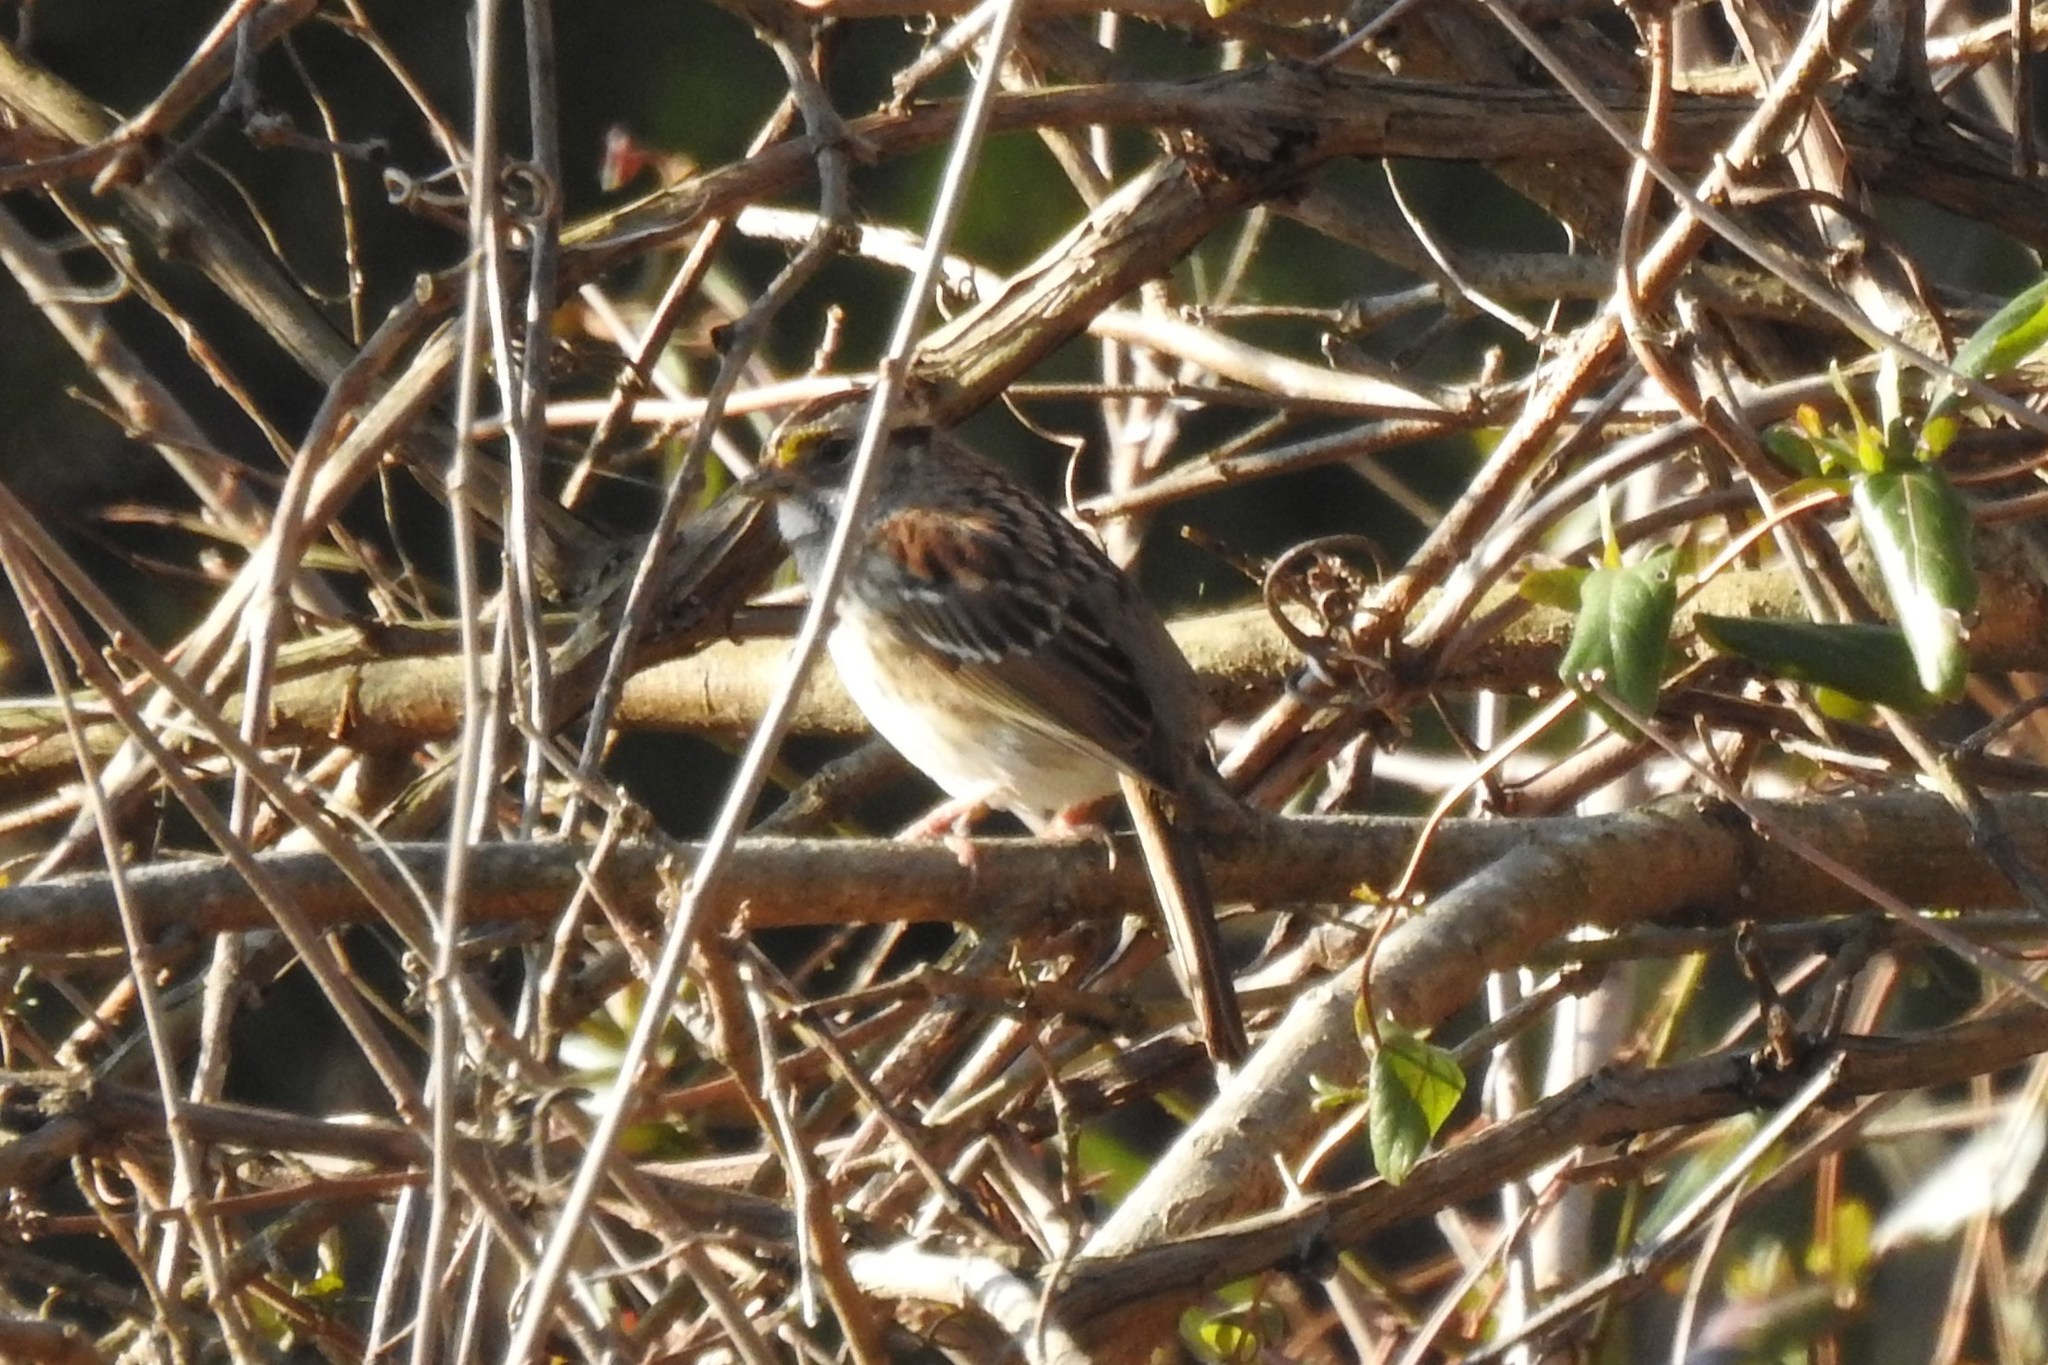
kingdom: Animalia
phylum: Chordata
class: Aves
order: Passeriformes
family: Passerellidae
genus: Zonotrichia
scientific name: Zonotrichia albicollis
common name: White-throated sparrow
